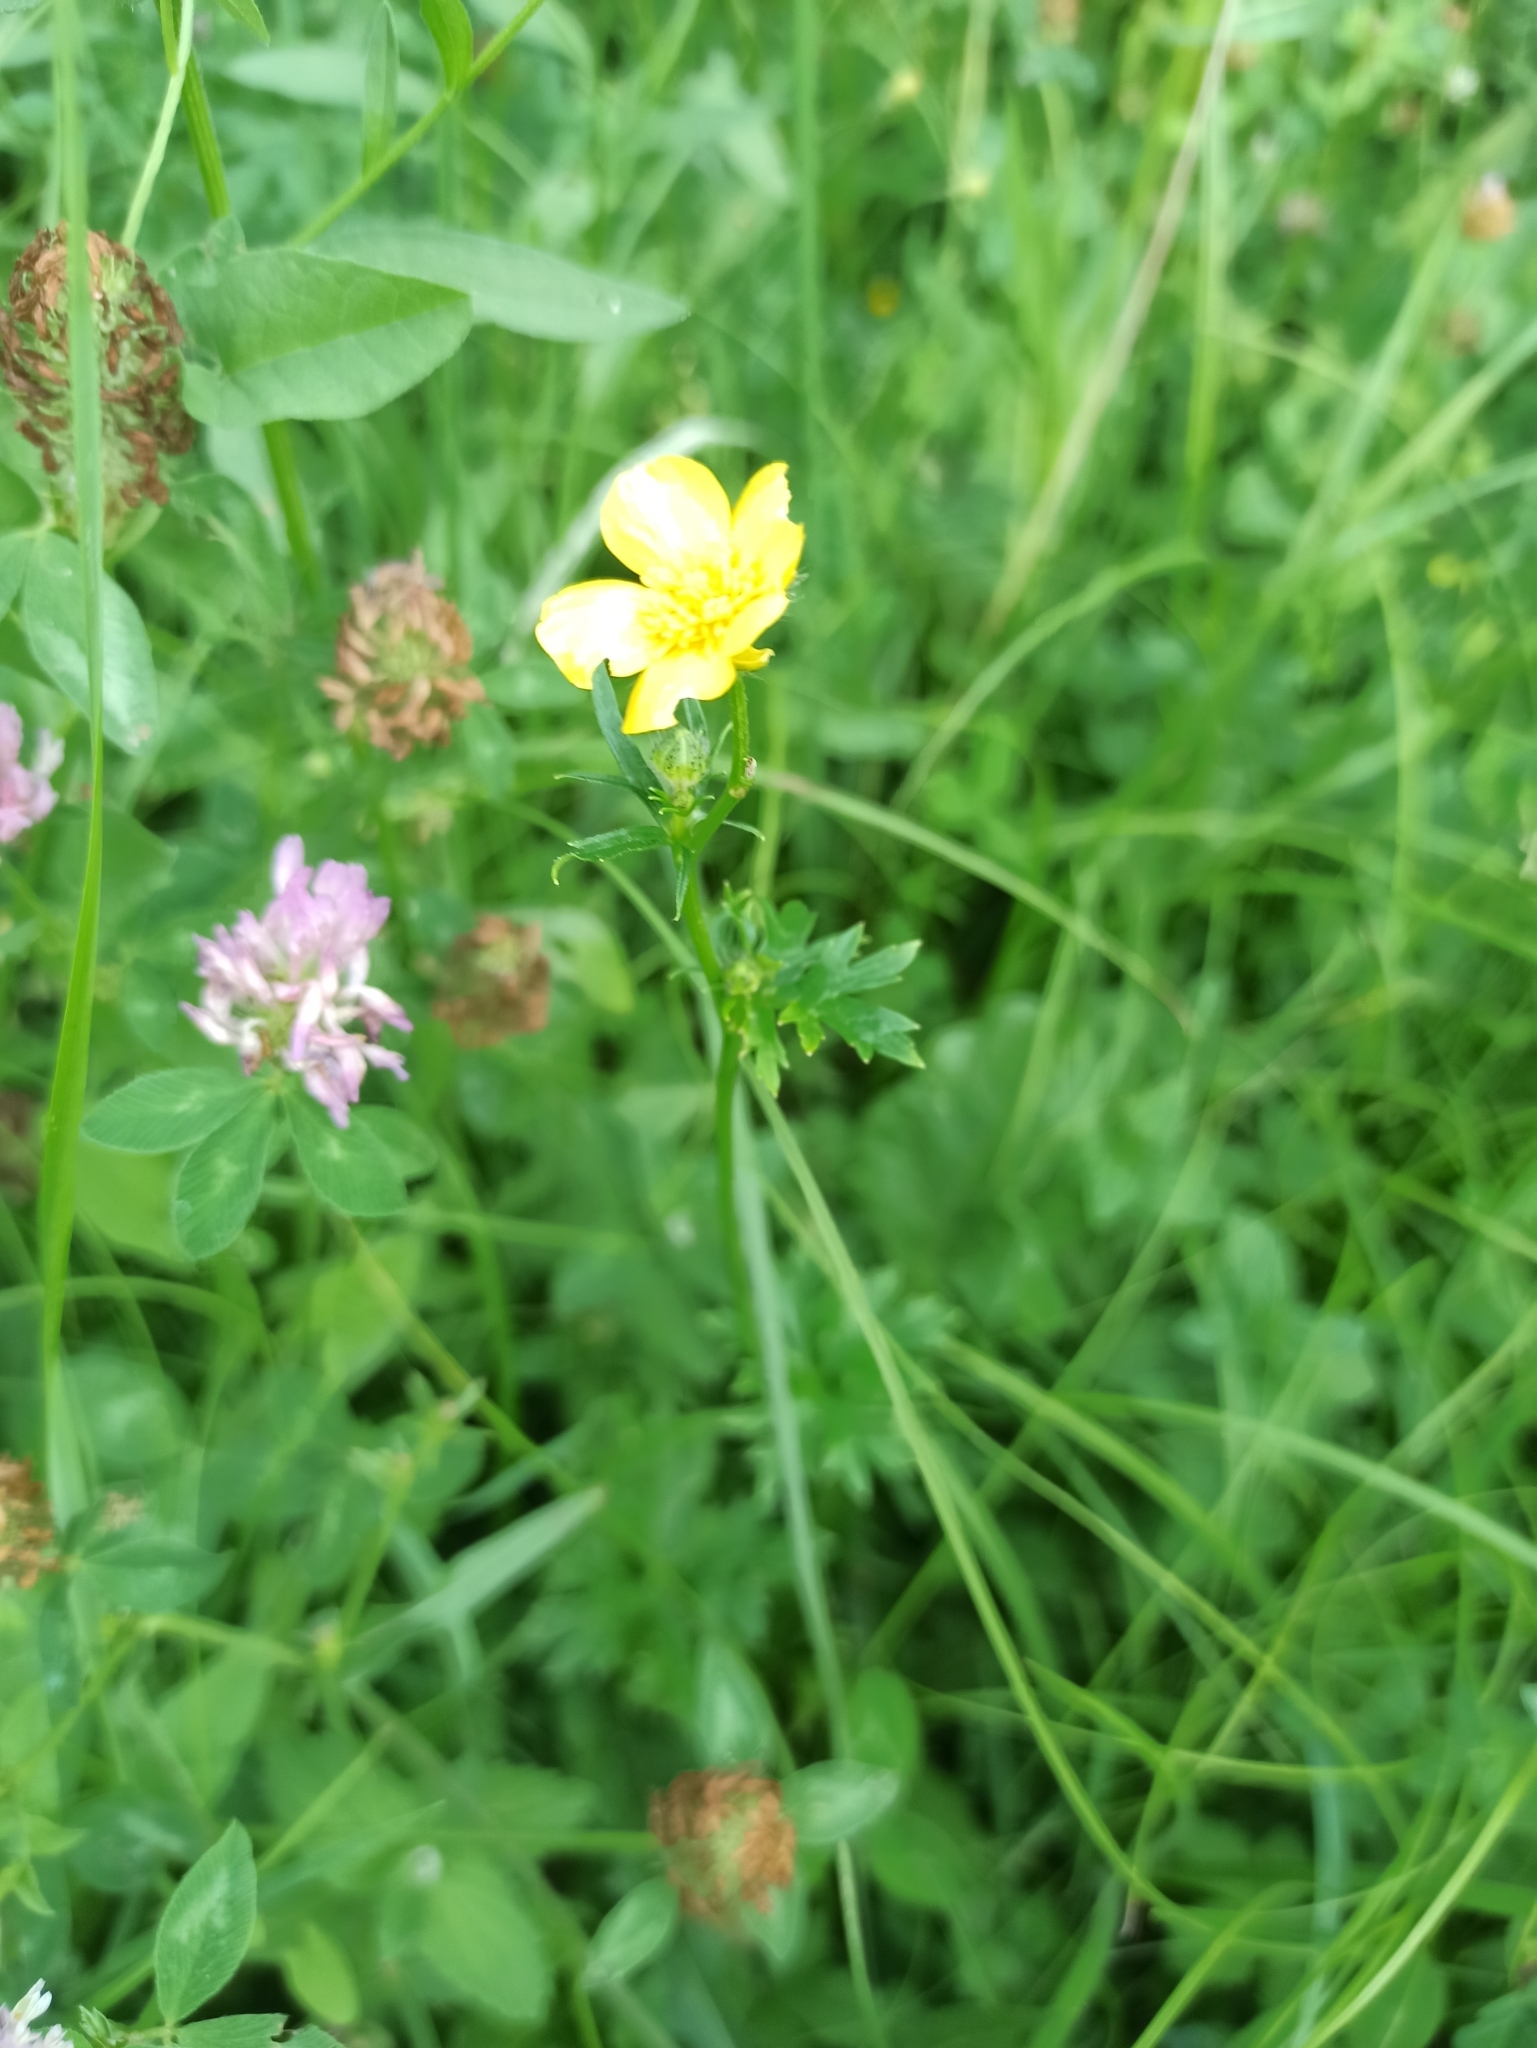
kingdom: Plantae
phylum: Tracheophyta
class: Magnoliopsida
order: Ranunculales
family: Ranunculaceae
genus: Ranunculus
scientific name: Ranunculus acris
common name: Meadow buttercup
